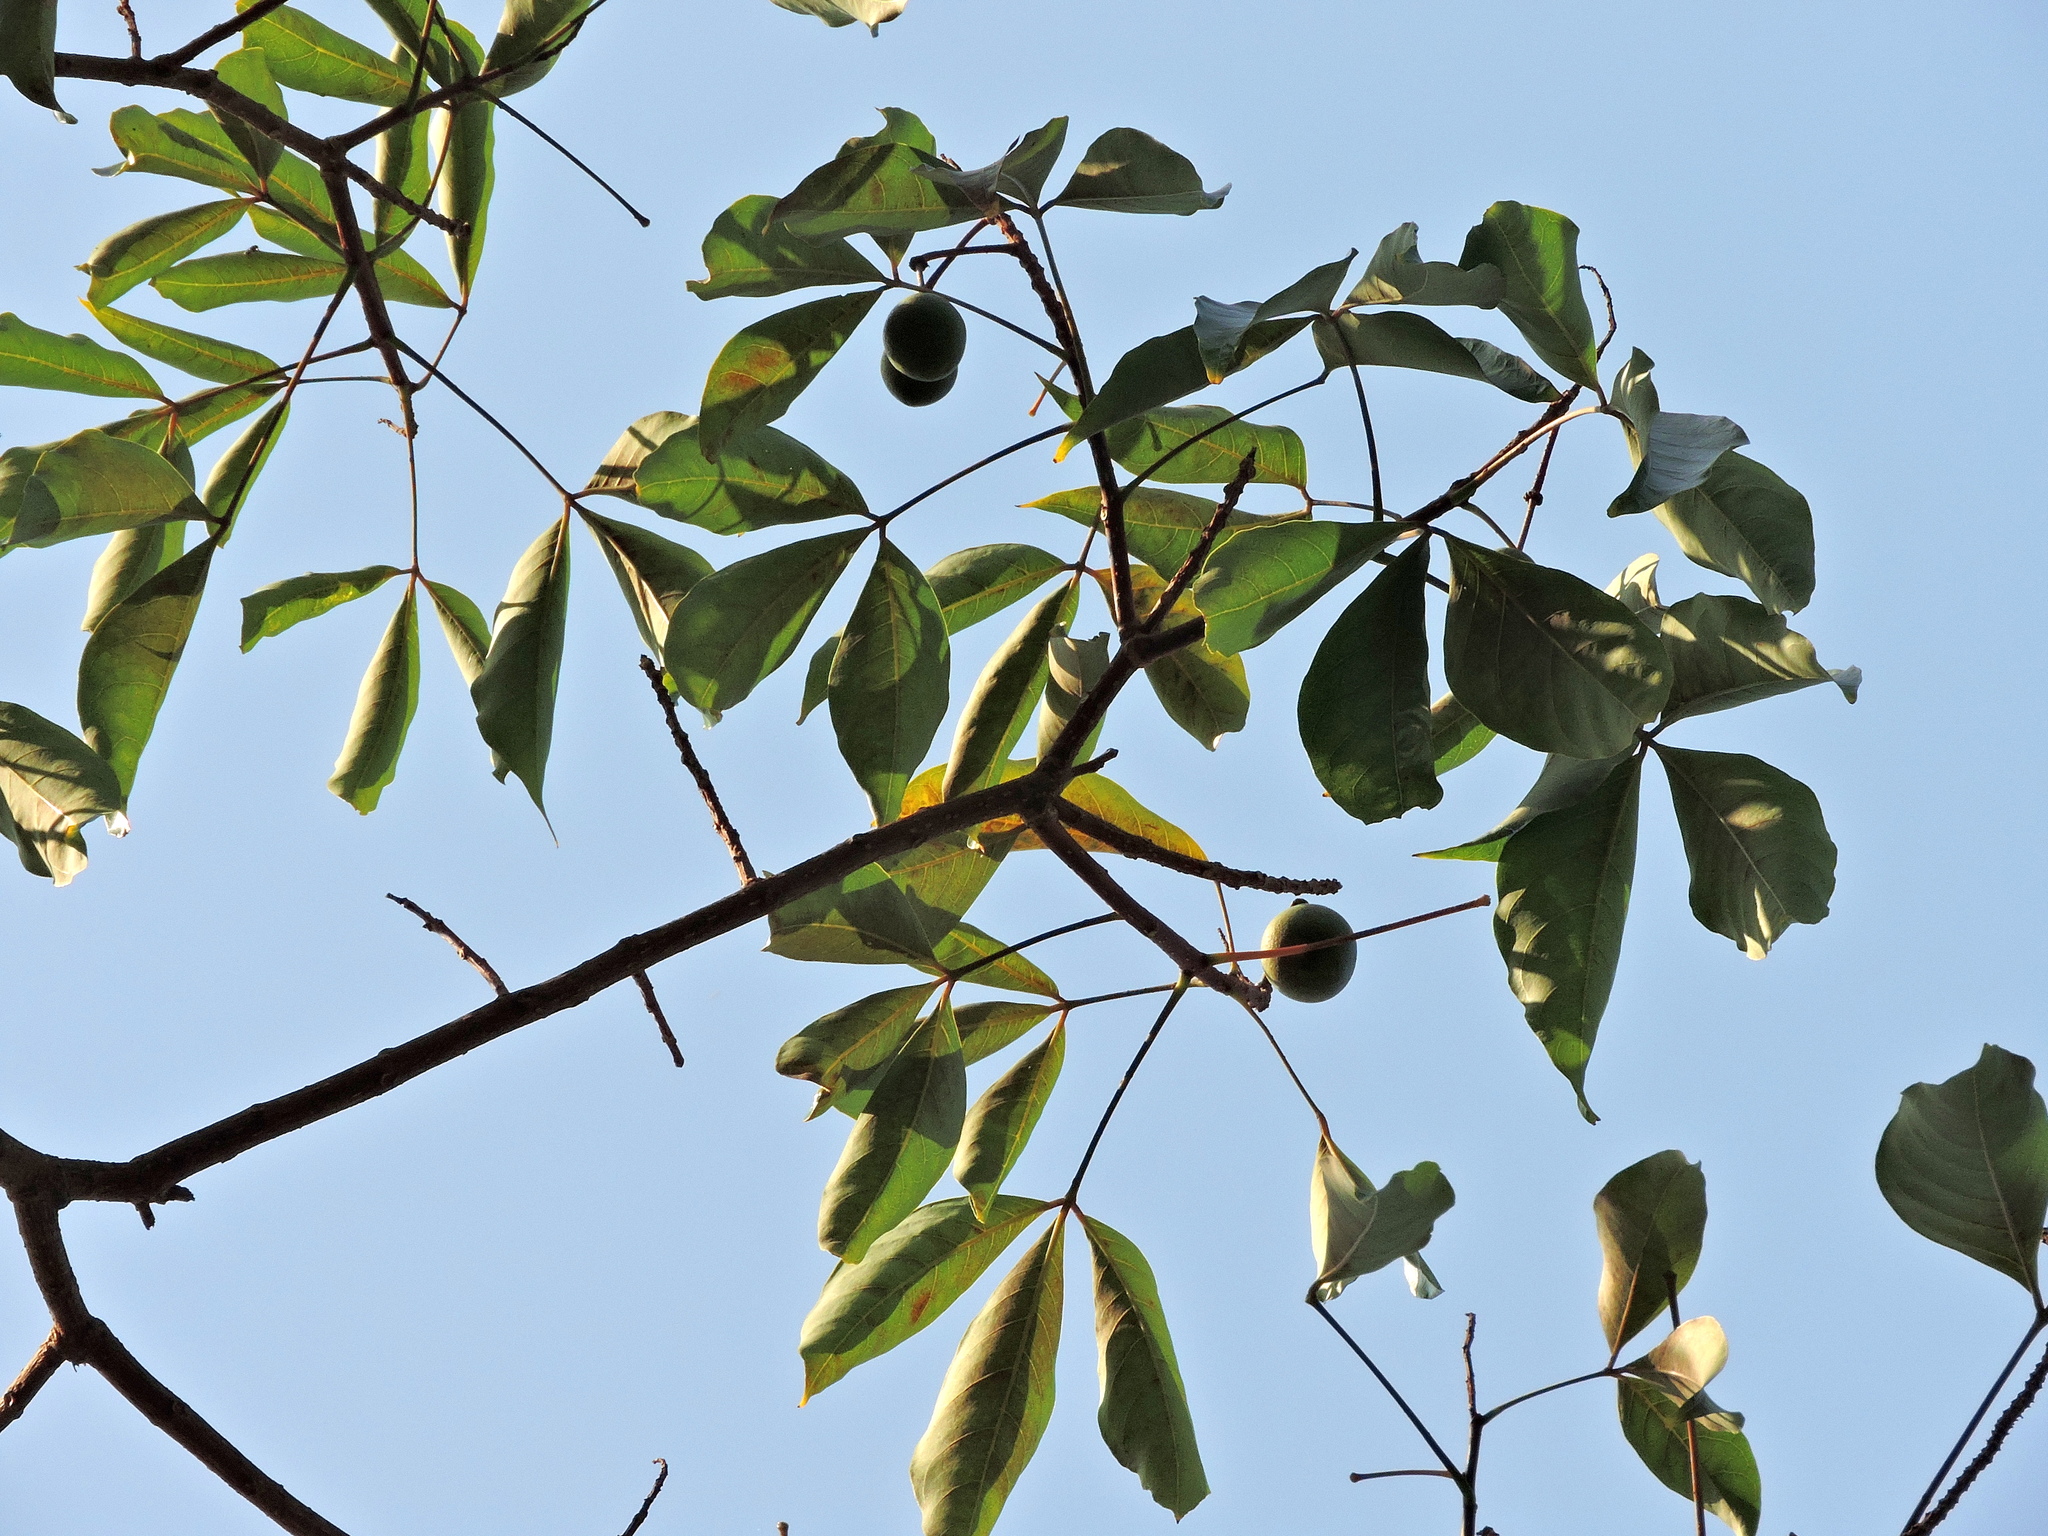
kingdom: Plantae
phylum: Tracheophyta
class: Magnoliopsida
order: Brassicales
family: Capparaceae
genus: Crateva
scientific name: Crateva formosensis
